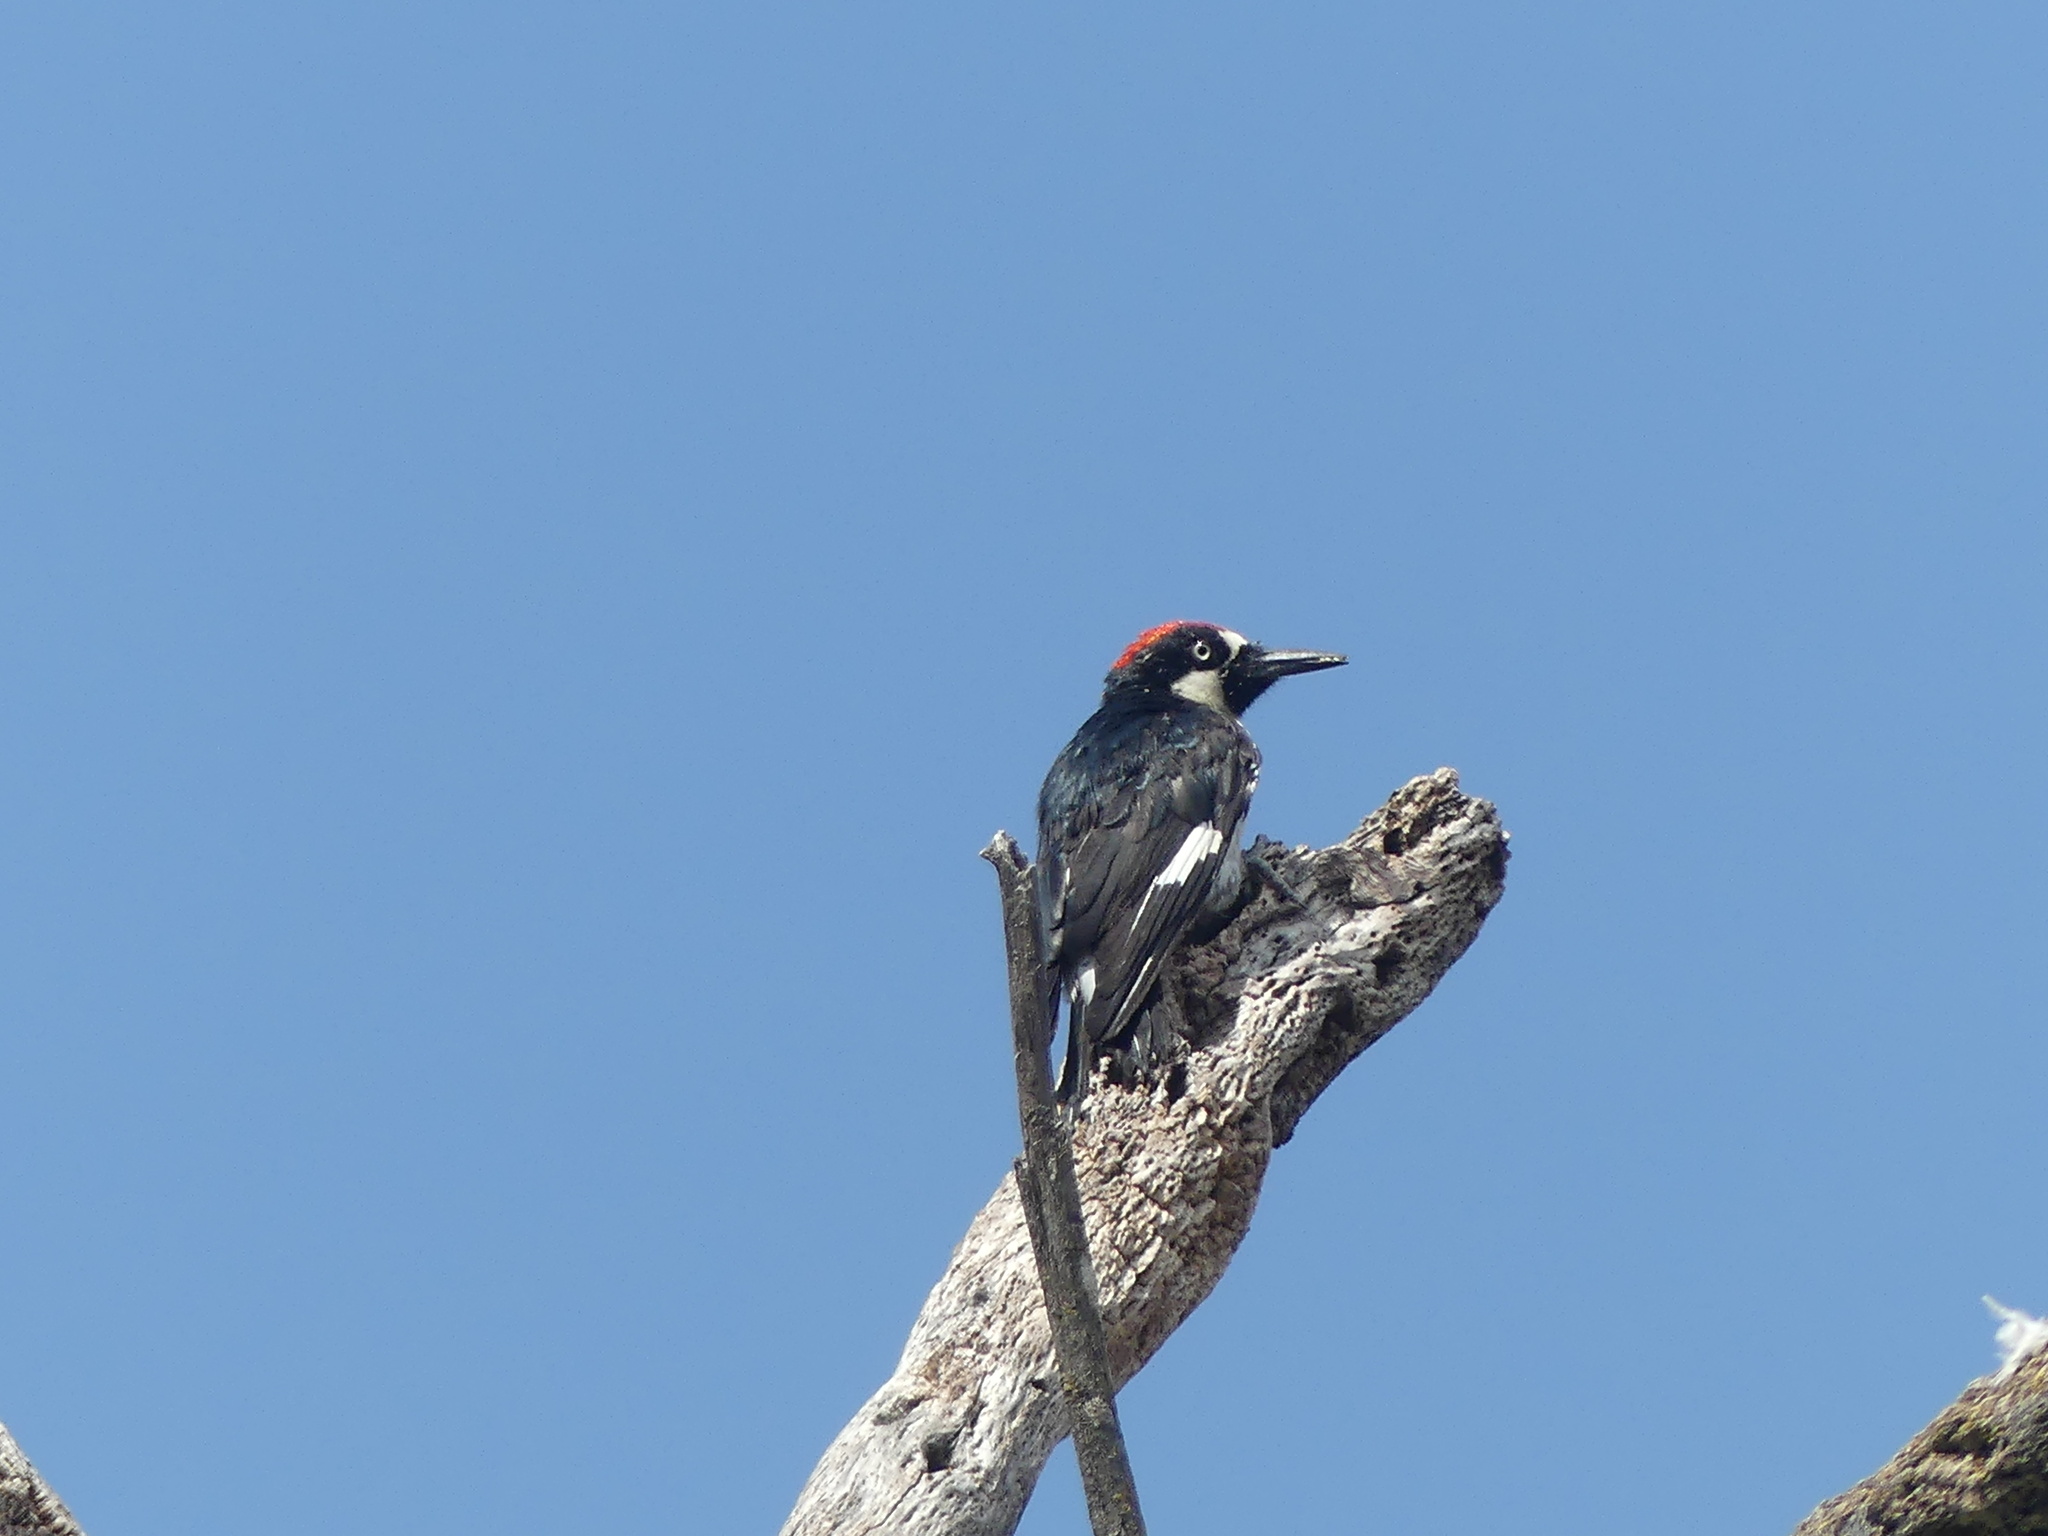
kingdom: Animalia
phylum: Chordata
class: Aves
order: Piciformes
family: Picidae
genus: Melanerpes
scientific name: Melanerpes formicivorus
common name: Acorn woodpecker
